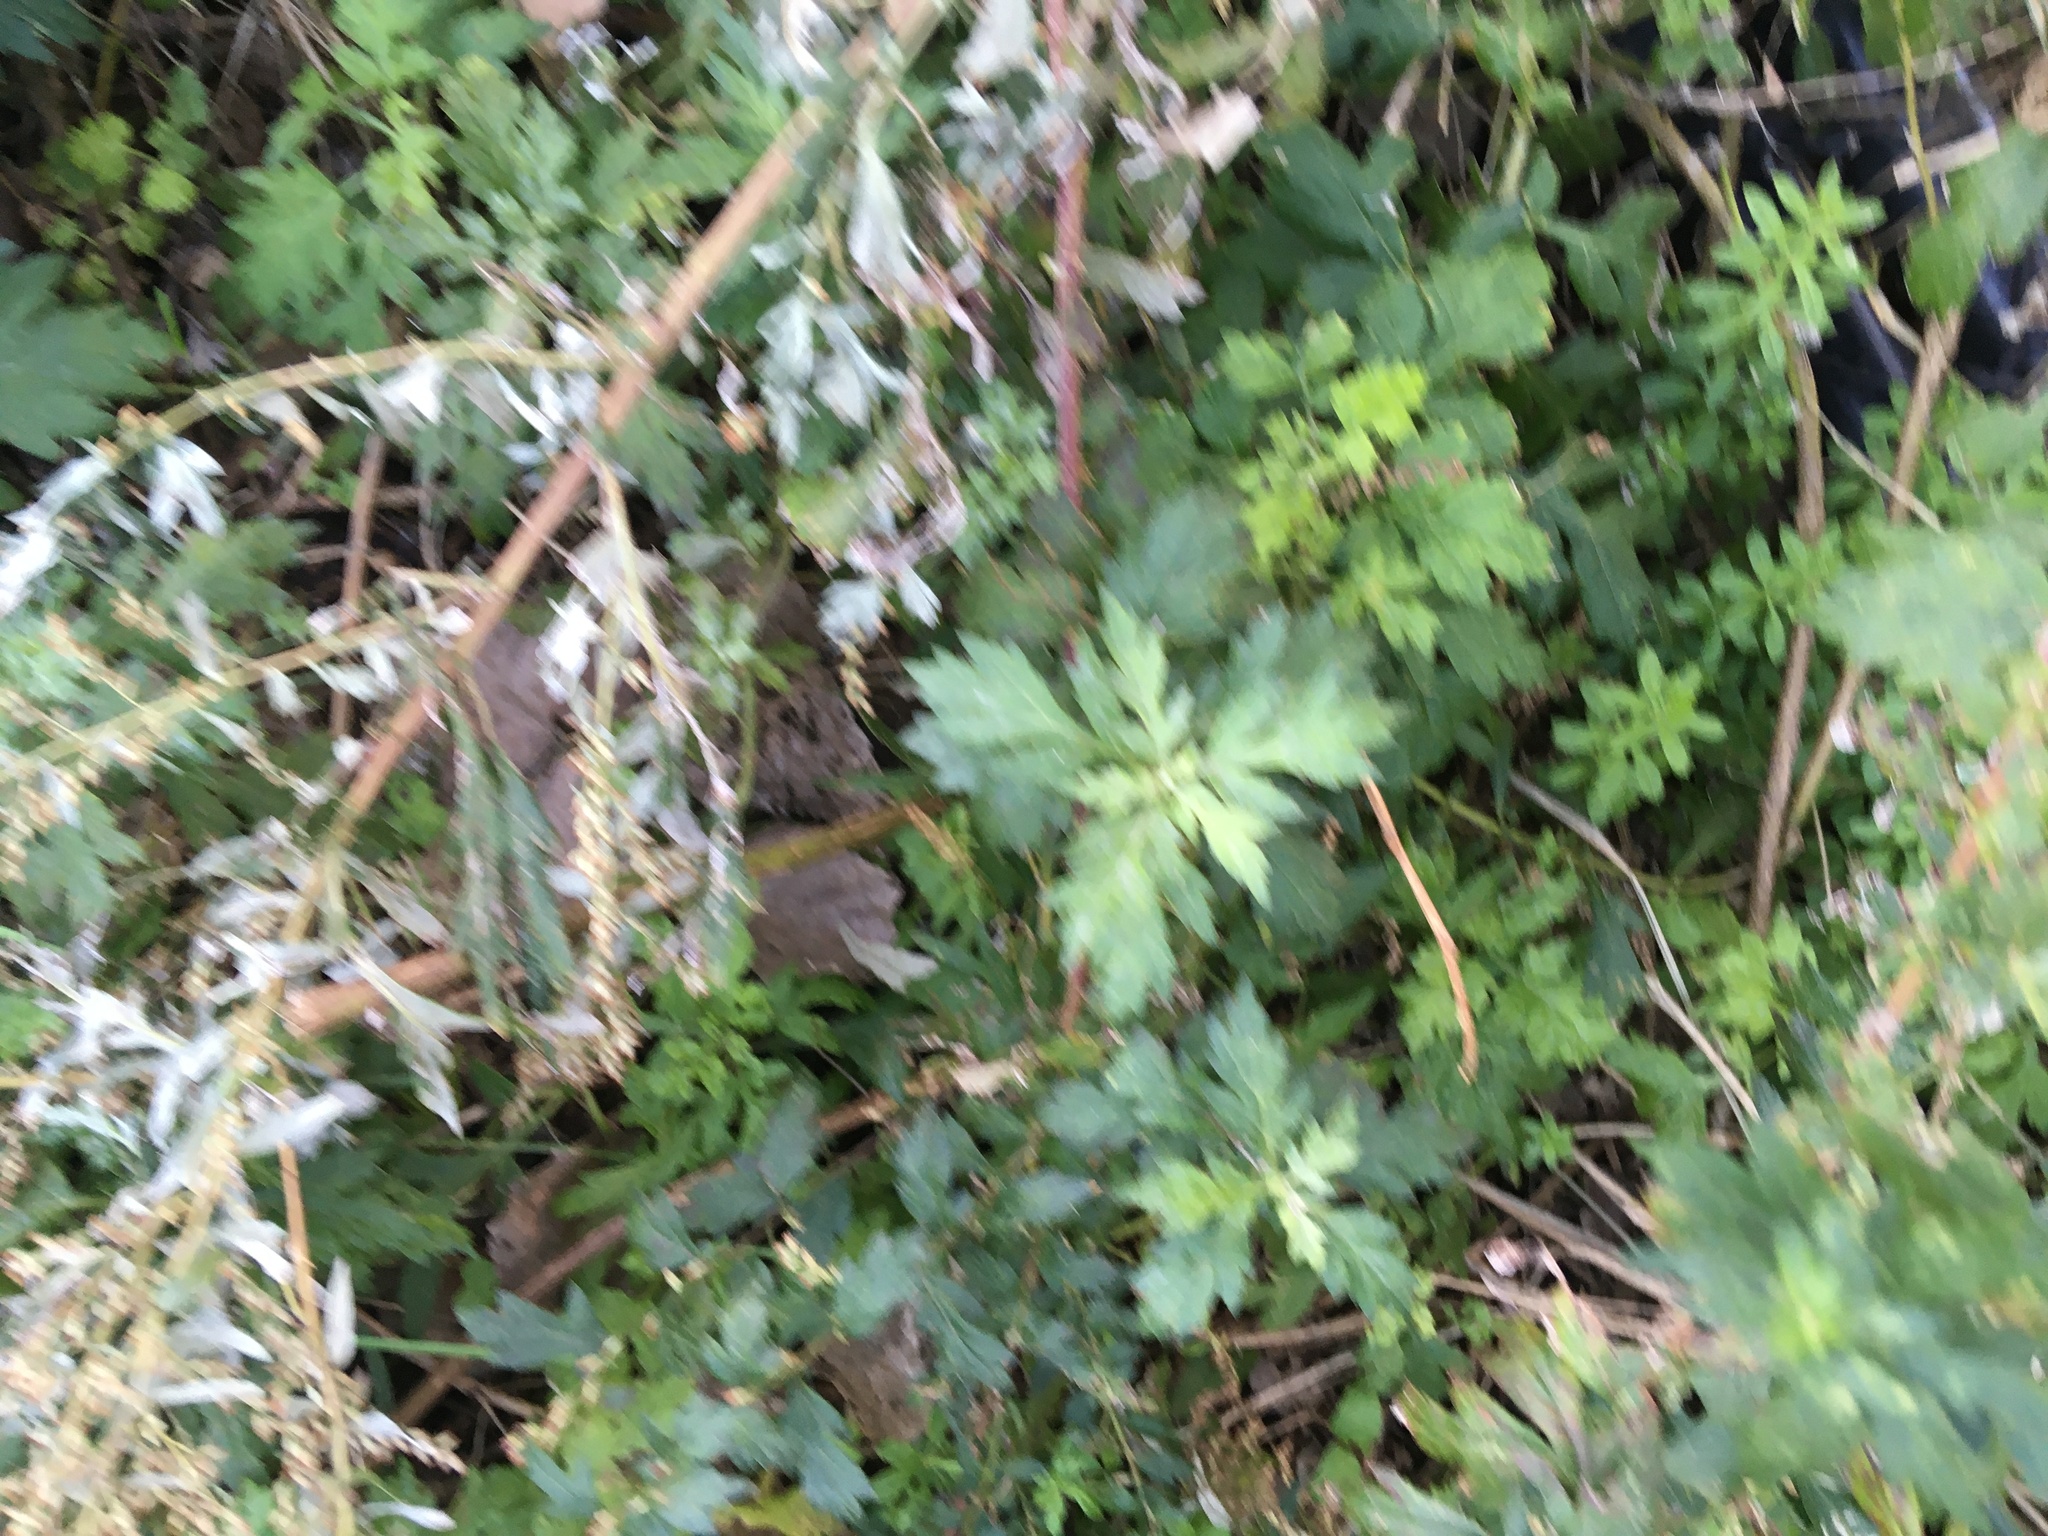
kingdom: Plantae
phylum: Tracheophyta
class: Magnoliopsida
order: Asterales
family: Asteraceae
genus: Artemisia
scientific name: Artemisia vulgaris
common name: Mugwort
